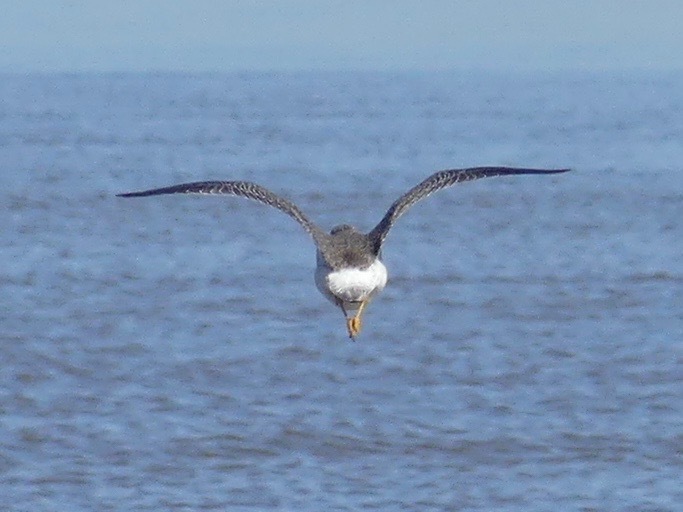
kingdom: Animalia
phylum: Chordata
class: Aves
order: Charadriiformes
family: Scolopacidae
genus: Tringa
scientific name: Tringa melanoleuca
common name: Greater yellowlegs
